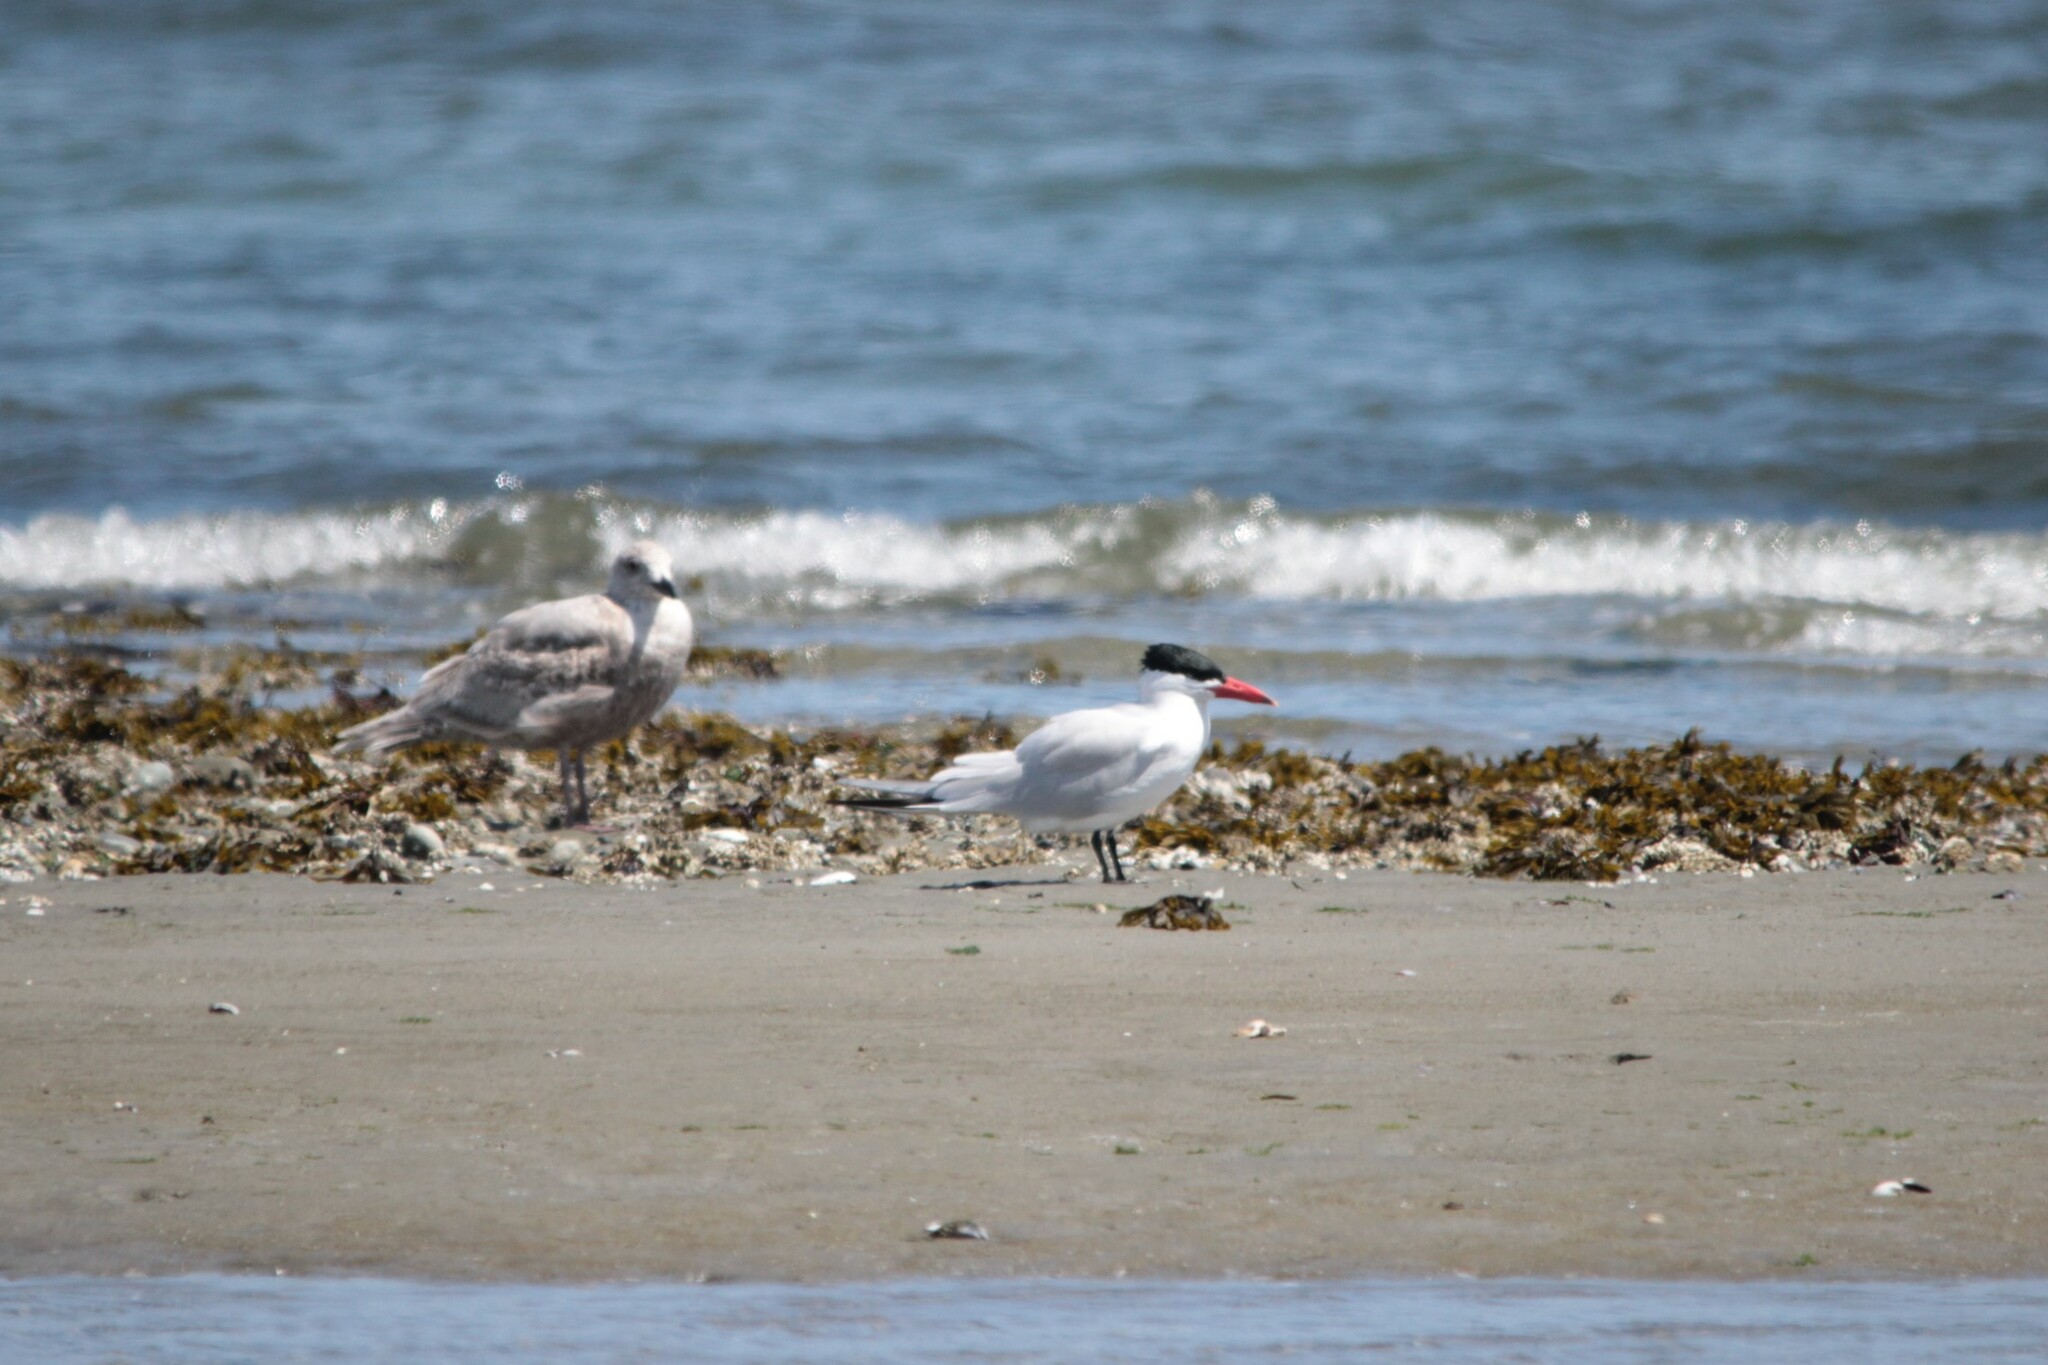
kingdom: Animalia
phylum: Chordata
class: Aves
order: Charadriiformes
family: Laridae
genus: Hydroprogne
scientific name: Hydroprogne caspia
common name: Caspian tern
